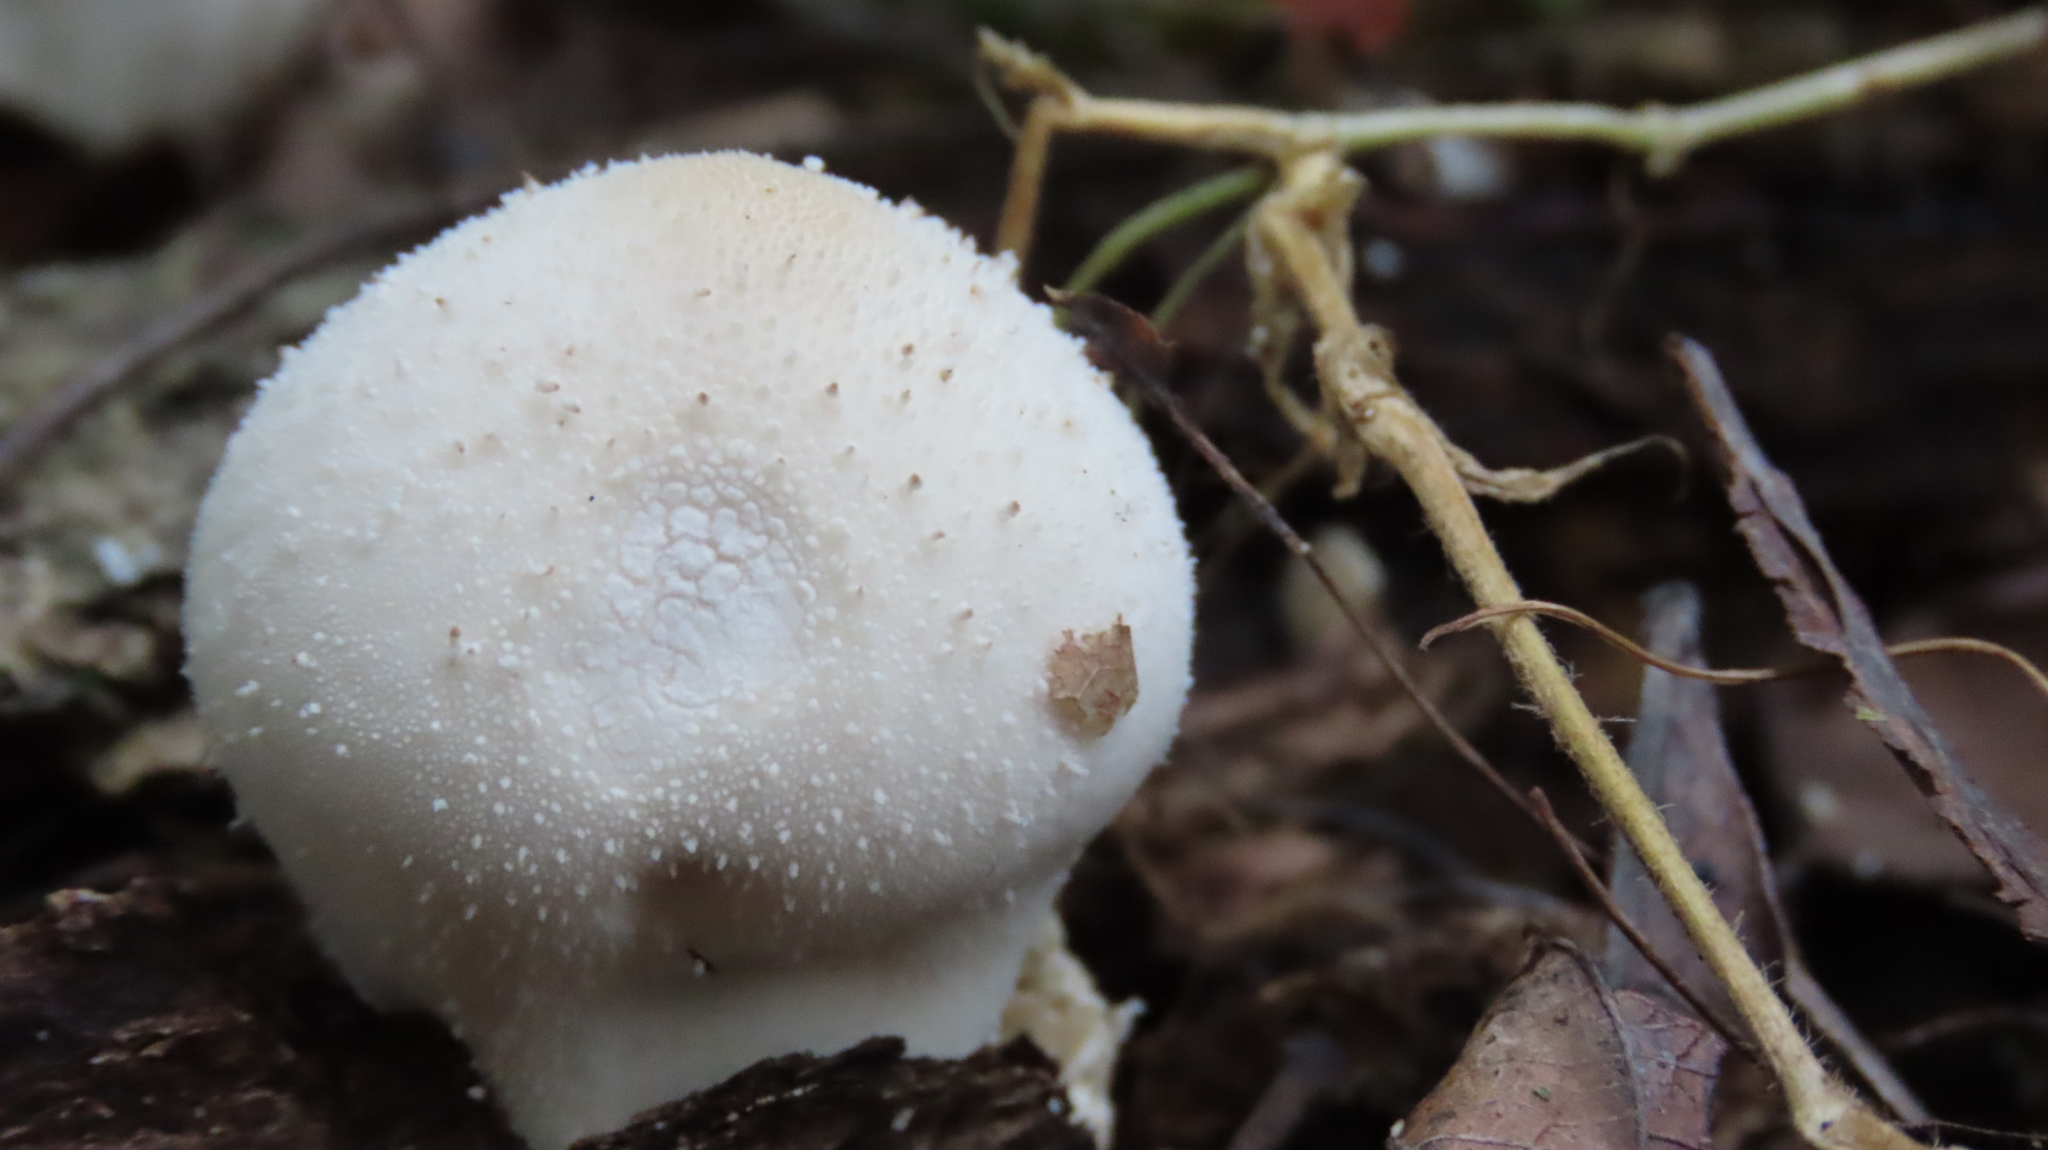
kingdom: Fungi
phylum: Basidiomycota
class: Agaricomycetes
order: Agaricales
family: Lycoperdaceae
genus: Lycoperdon
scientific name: Lycoperdon perlatum
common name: Common puffball
